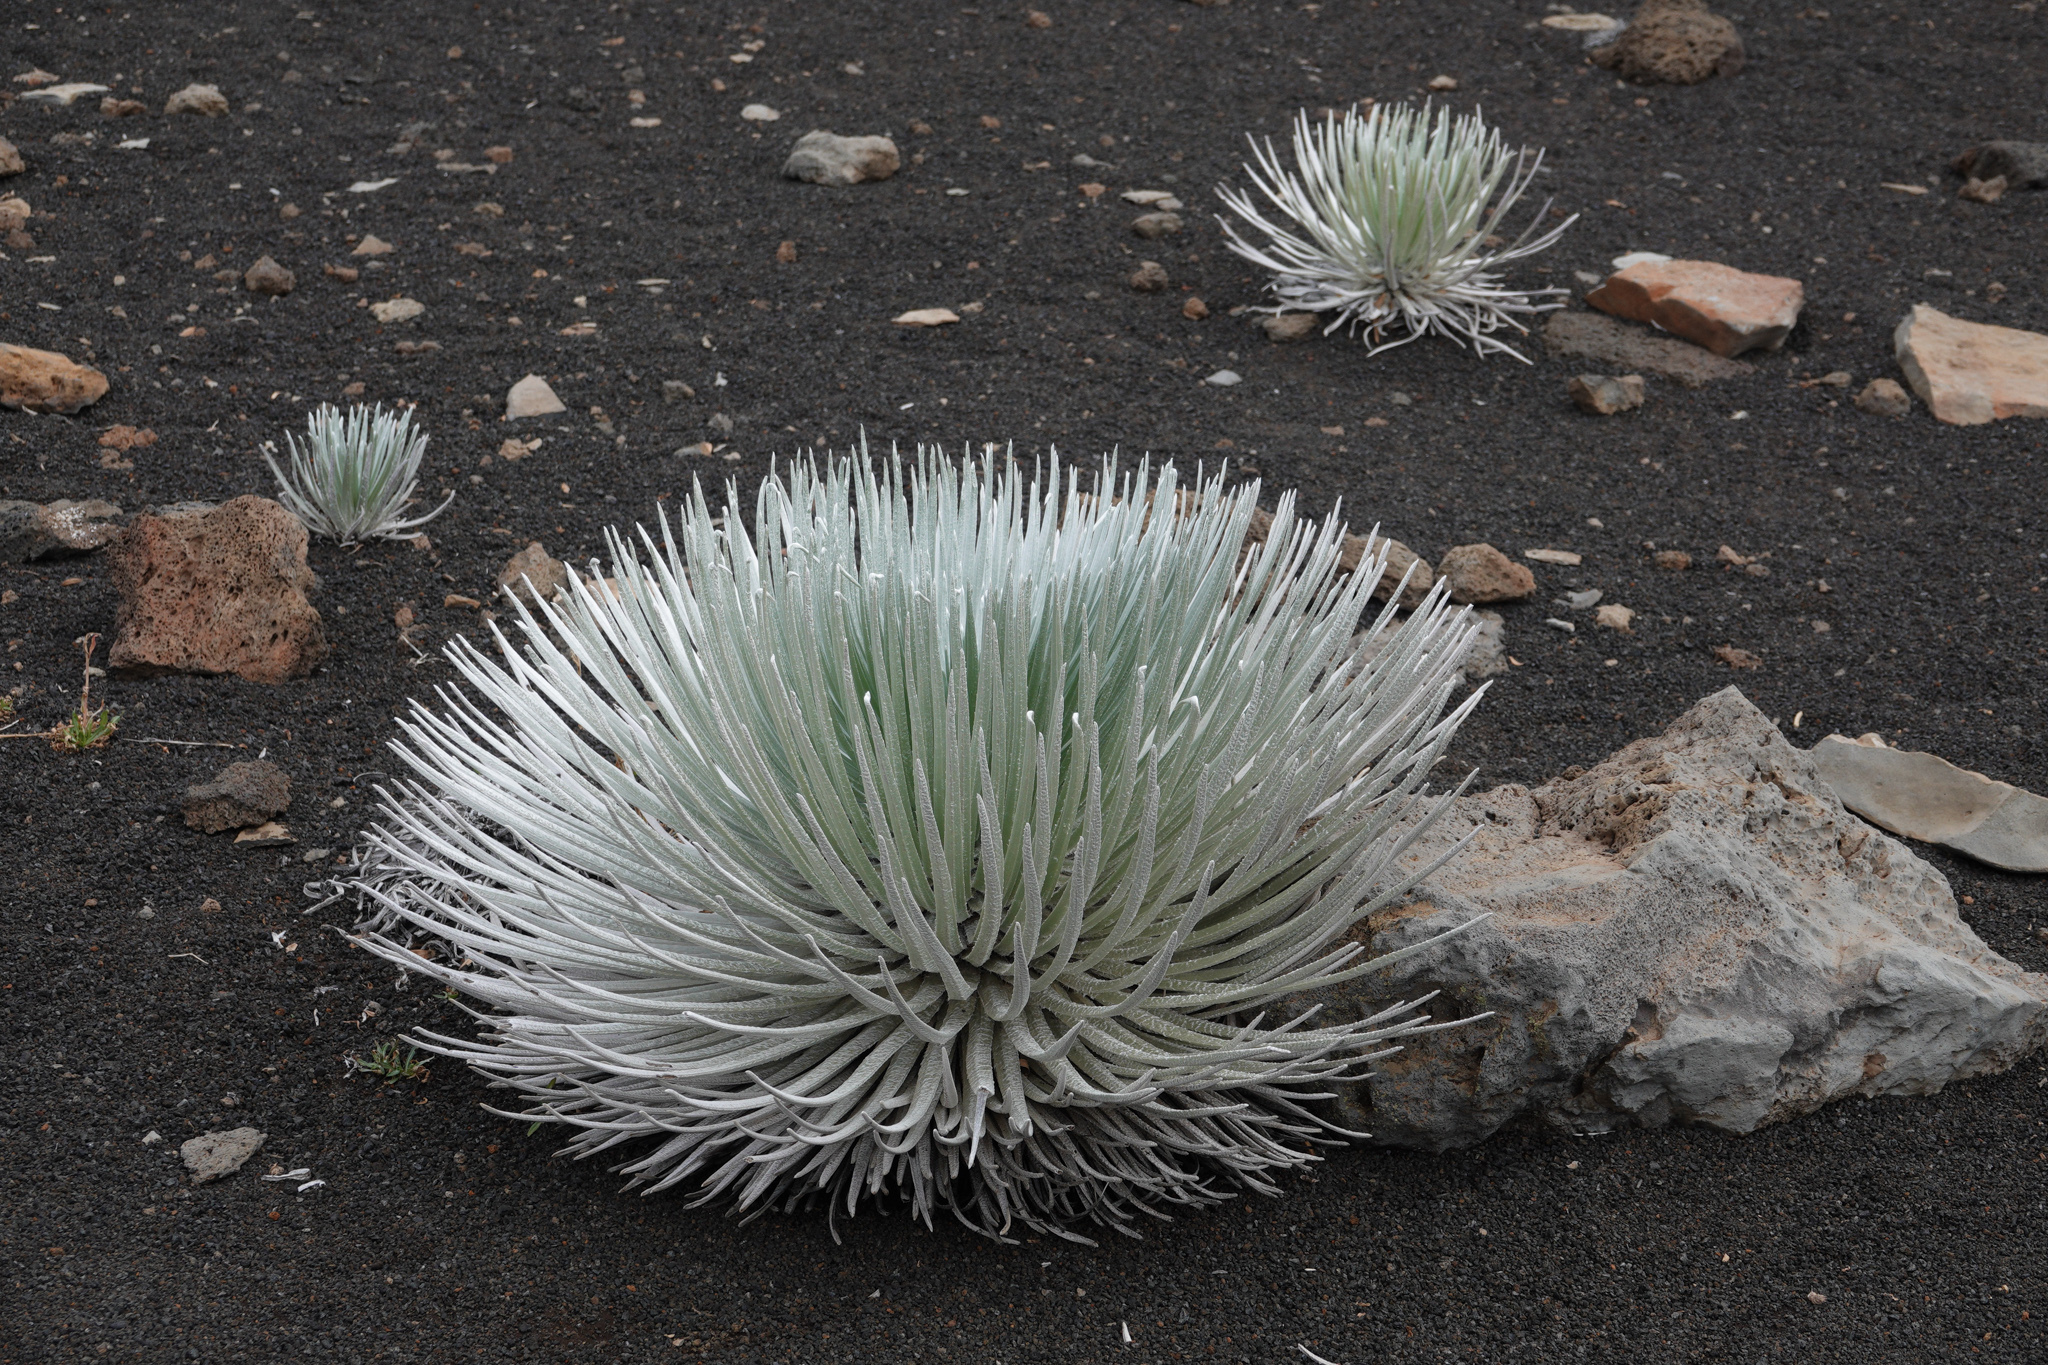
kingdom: Plantae
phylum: Tracheophyta
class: Magnoliopsida
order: Asterales
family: Asteraceae
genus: Argyroxiphium
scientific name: Argyroxiphium sandwicense
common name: Silversword
